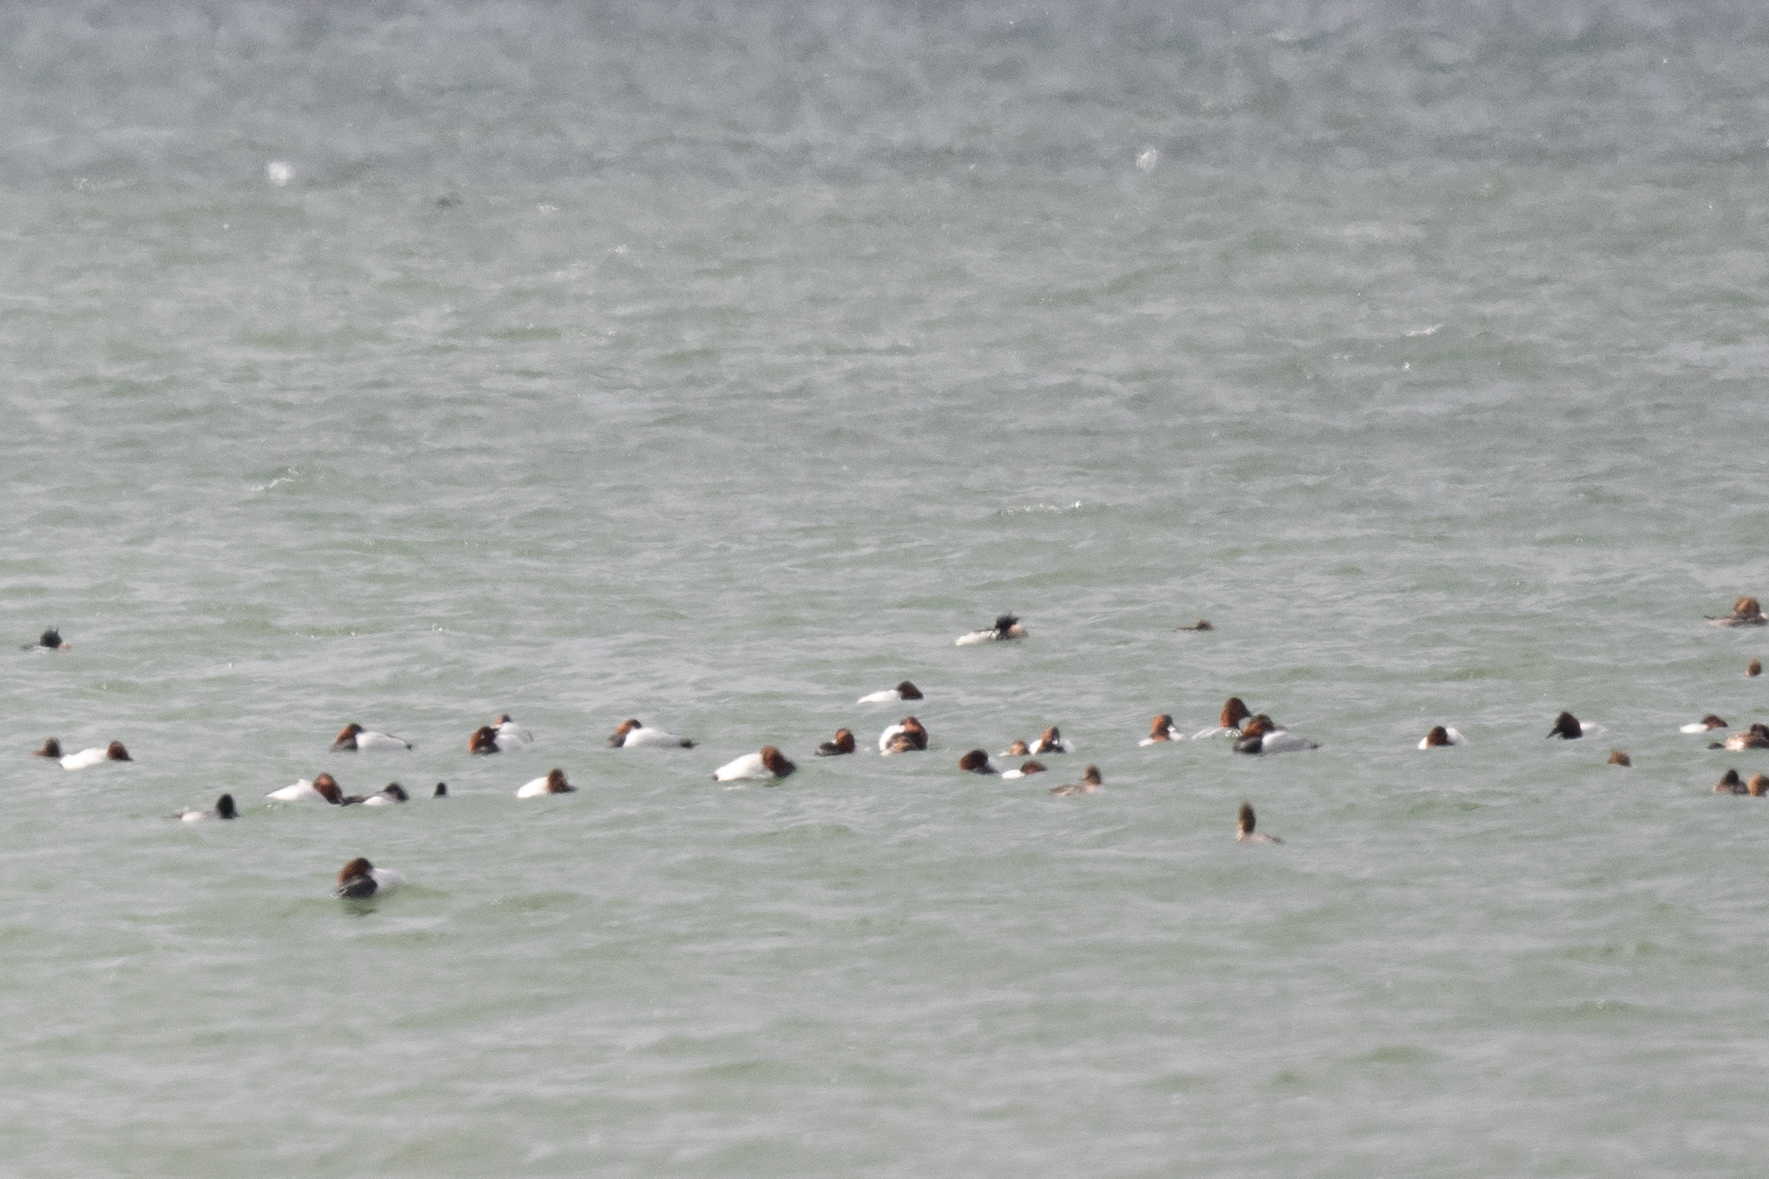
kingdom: Animalia
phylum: Chordata
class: Aves
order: Anseriformes
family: Anatidae
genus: Aythya
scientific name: Aythya valisineria
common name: Canvasback
